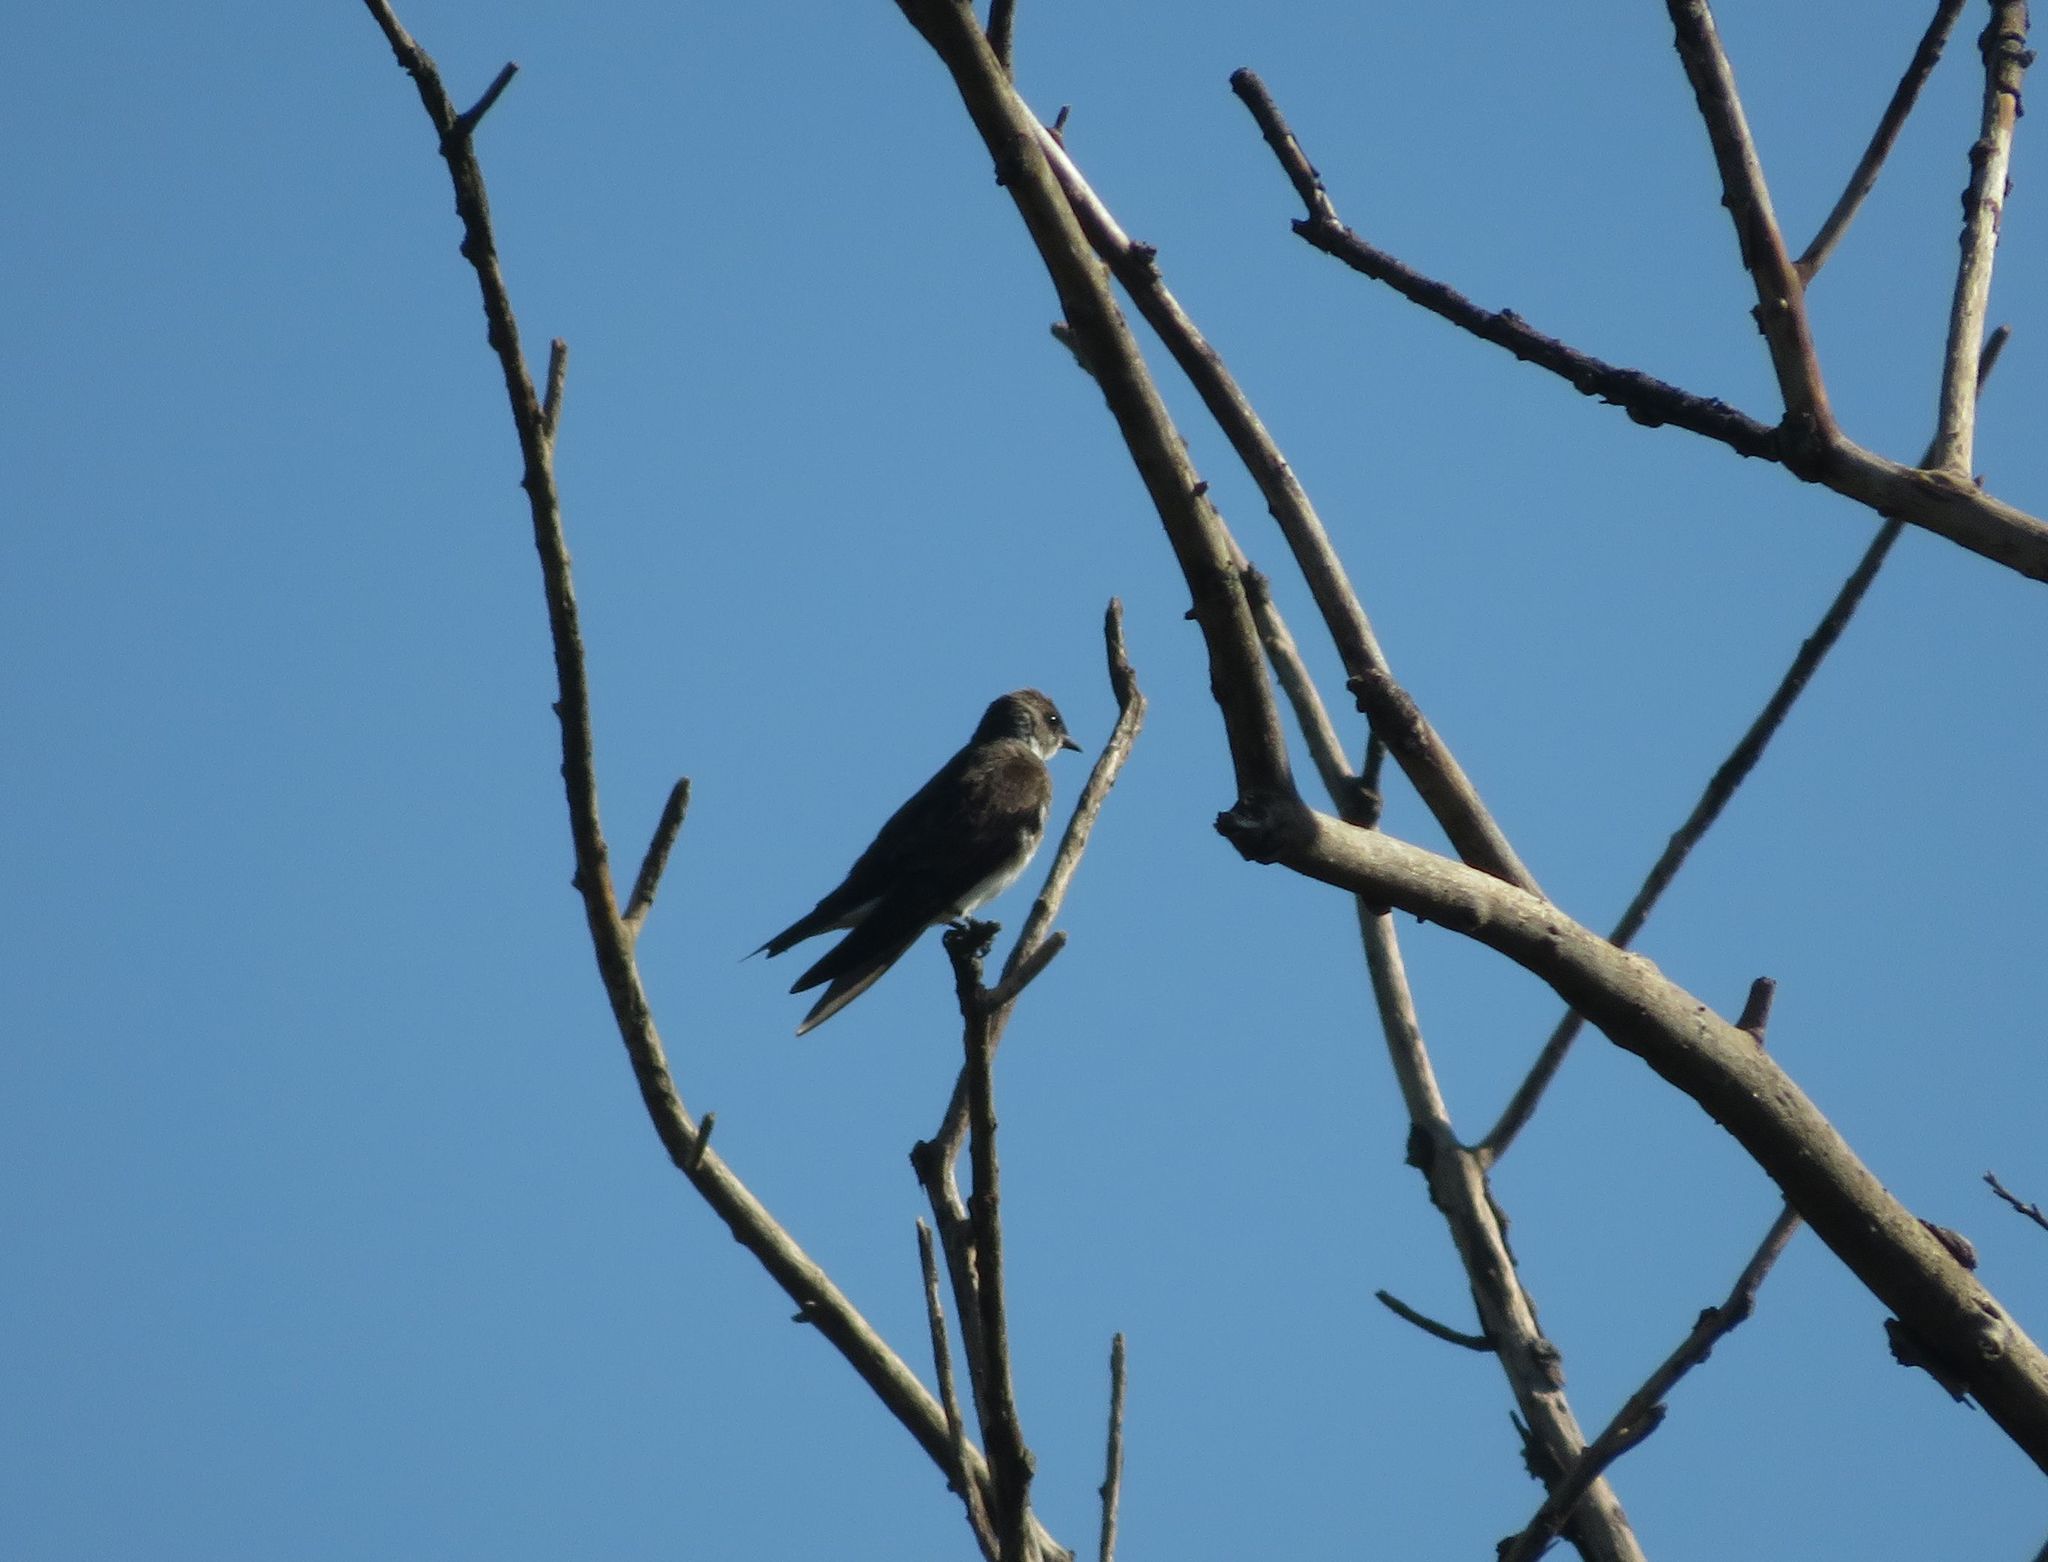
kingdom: Animalia
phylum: Chordata
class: Aves
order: Passeriformes
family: Hirundinidae
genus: Progne
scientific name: Progne tapera
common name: Brown-chested martin
